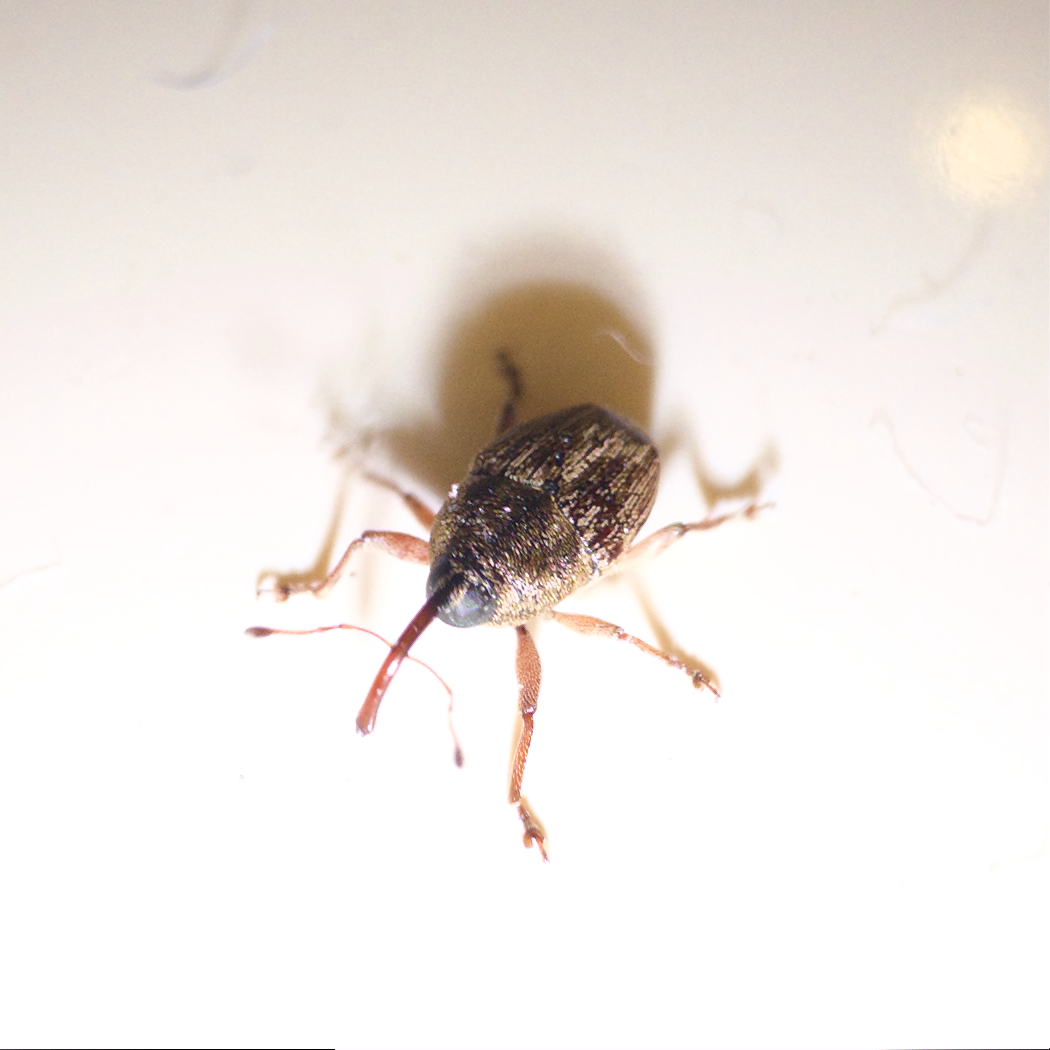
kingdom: Animalia
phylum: Arthropoda
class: Insecta
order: Coleoptera
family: Curculionidae
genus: Linogeraeus
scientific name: Linogeraeus
